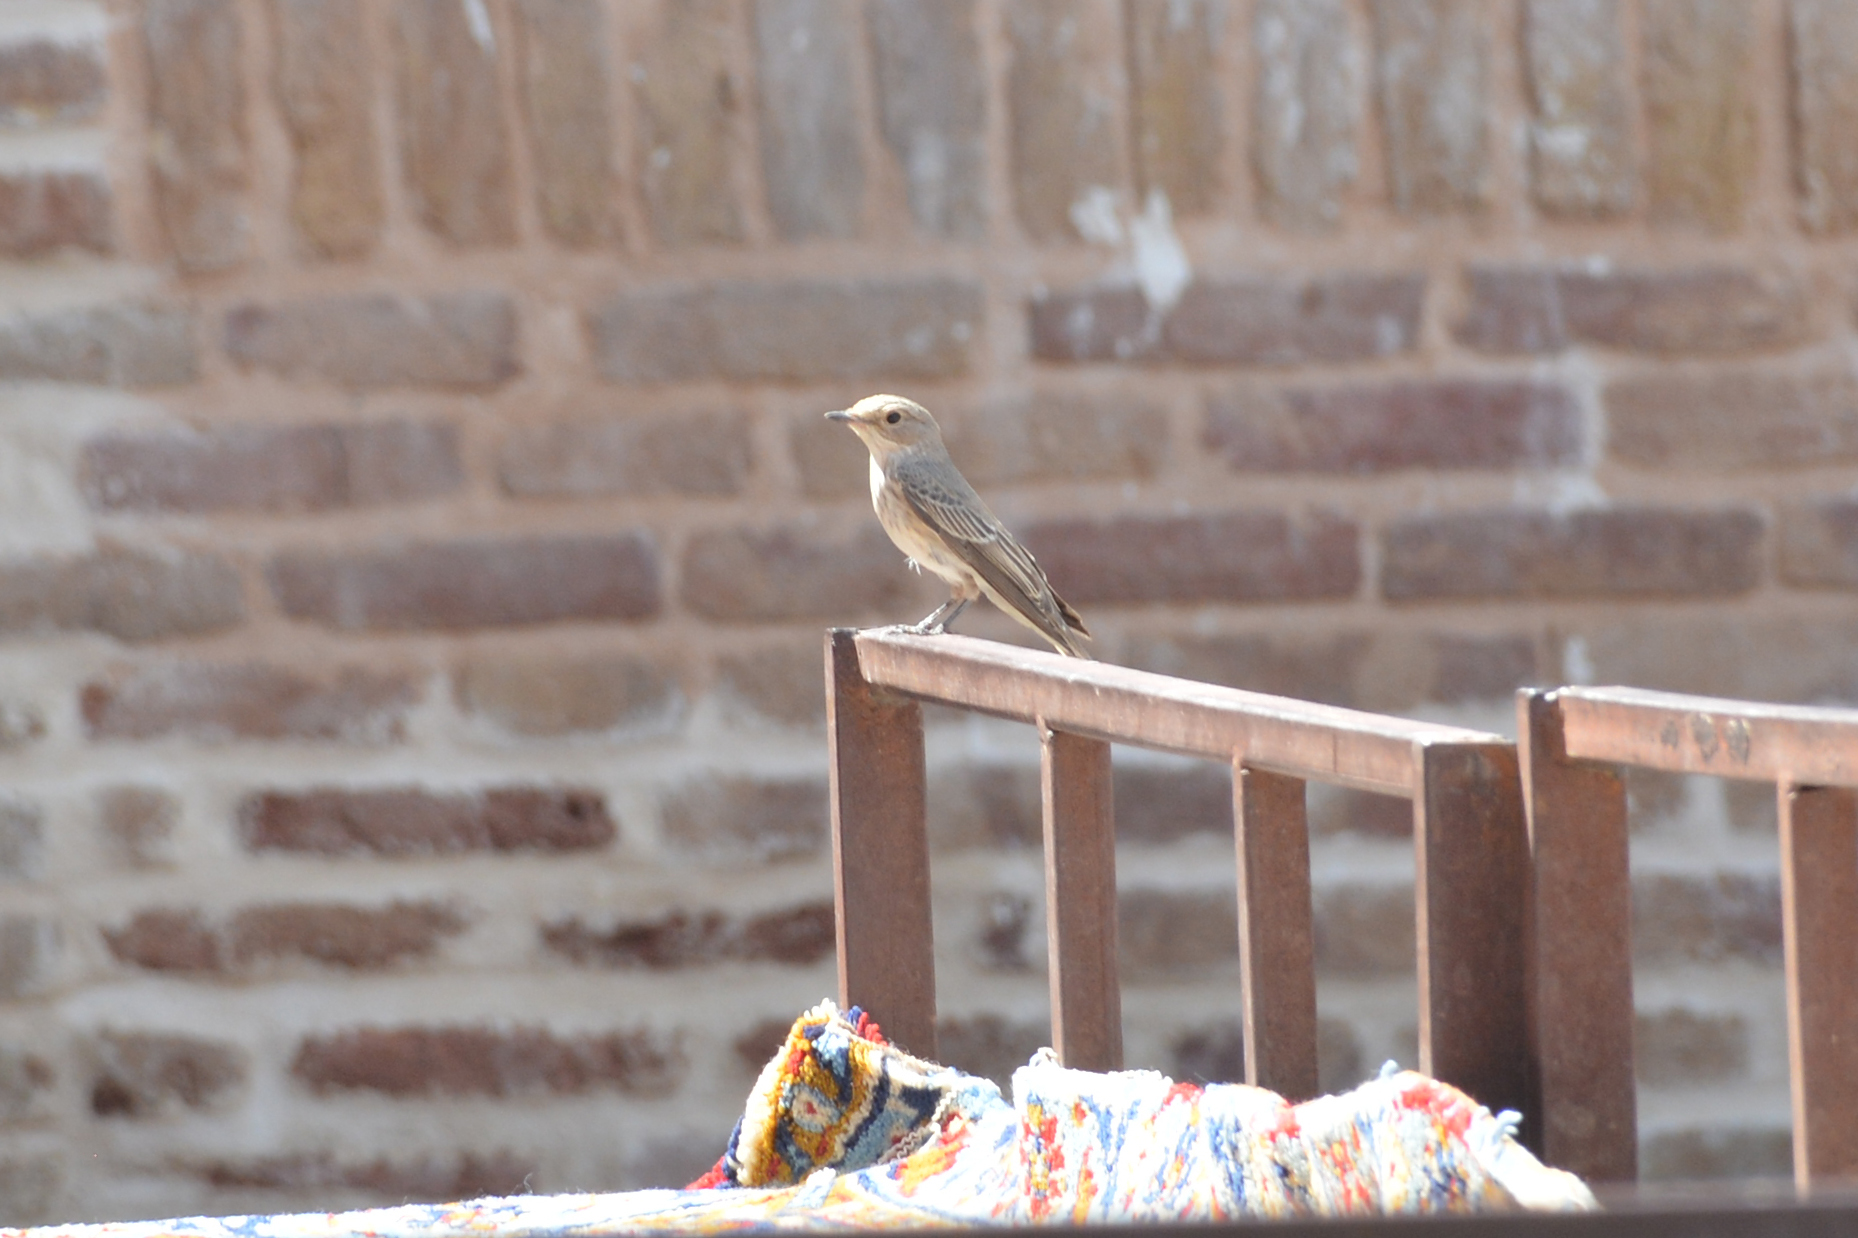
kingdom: Animalia
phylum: Chordata
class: Aves
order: Passeriformes
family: Muscicapidae
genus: Muscicapa
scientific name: Muscicapa striata
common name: Spotted flycatcher
